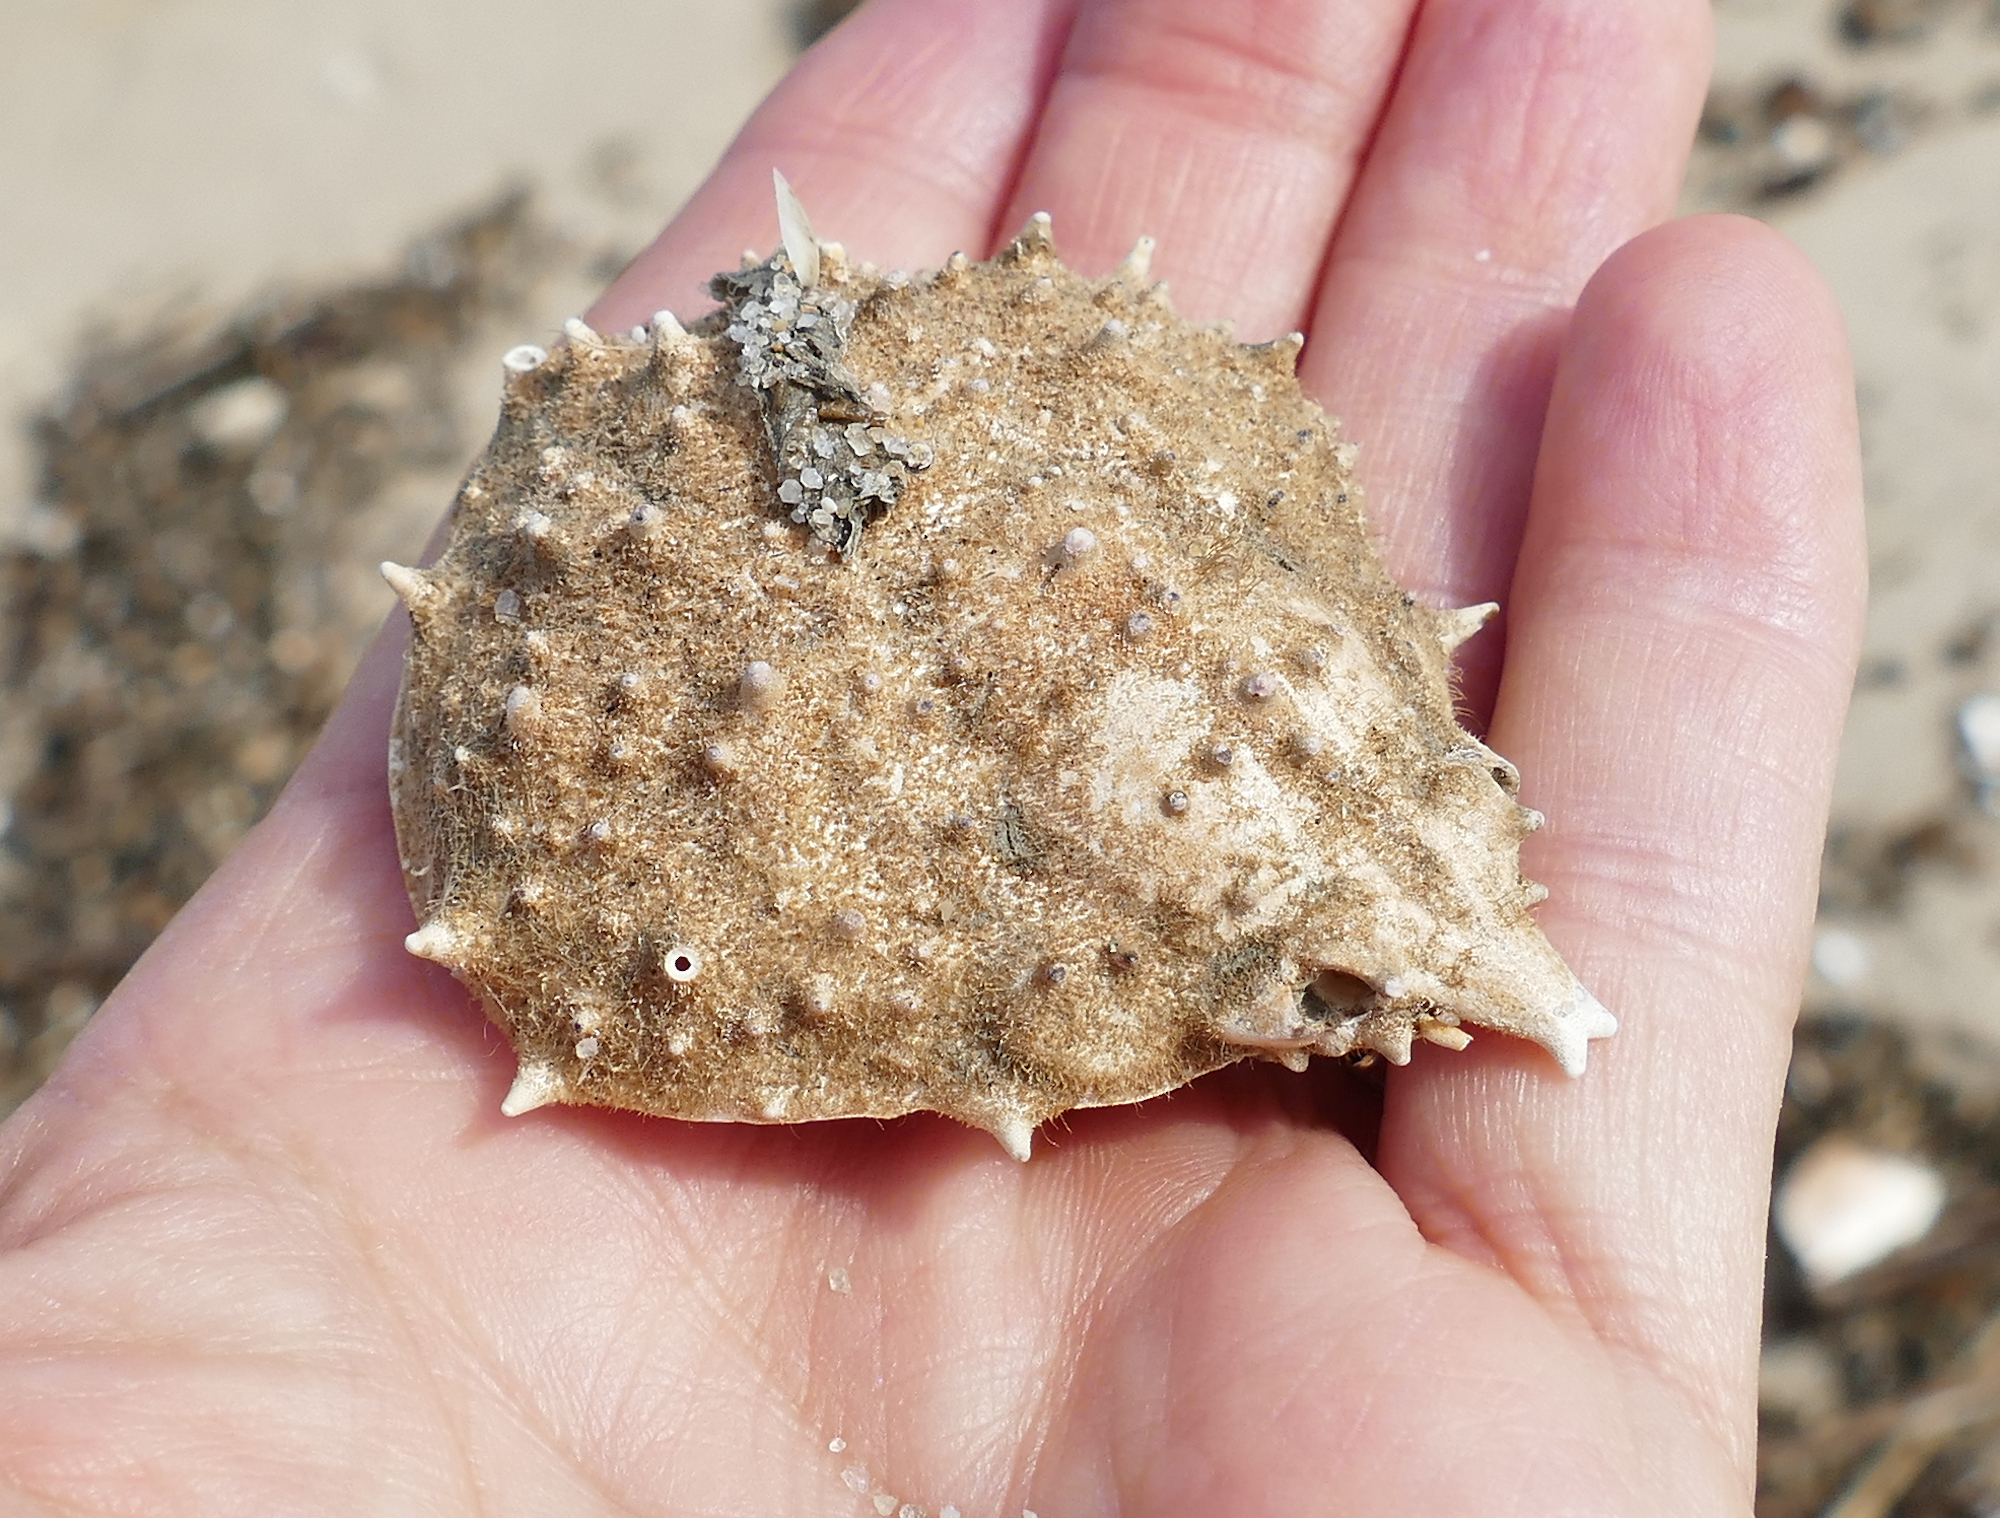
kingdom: Animalia
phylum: Arthropoda
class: Malacostraca
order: Decapoda
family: Epialtidae
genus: Libinia
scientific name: Libinia emarginata
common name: Common spider crab
